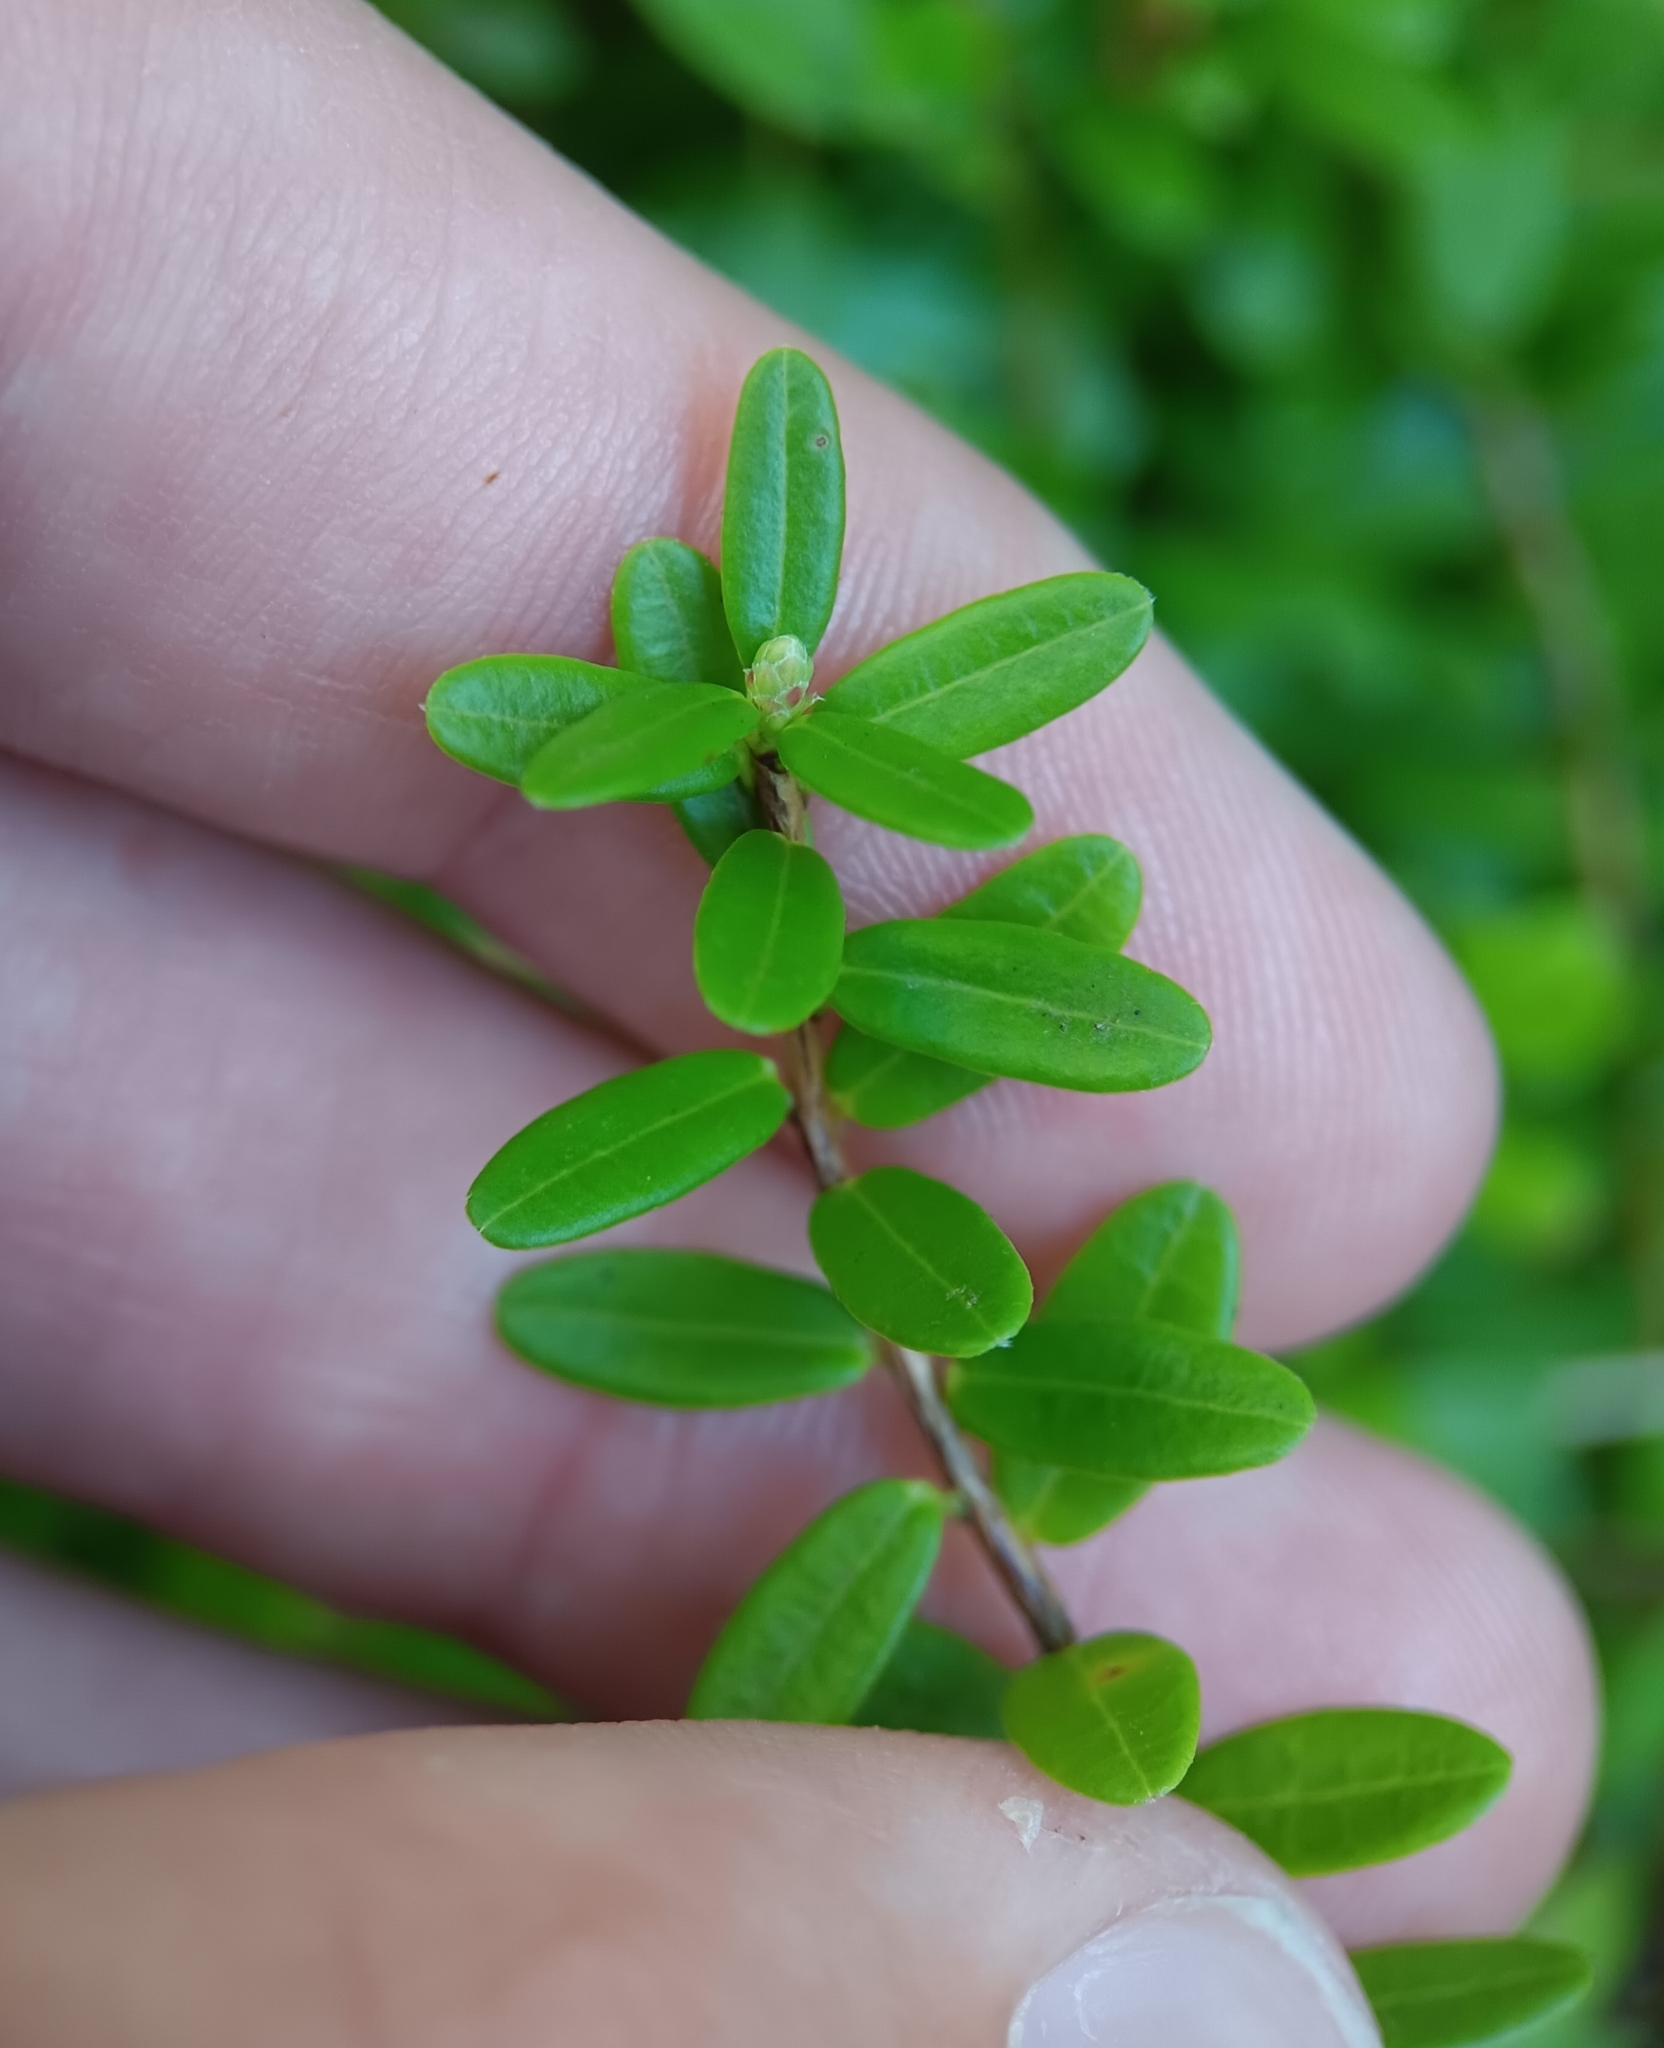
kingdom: Plantae
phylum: Tracheophyta
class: Magnoliopsida
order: Ericales
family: Ericaceae
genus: Vaccinium
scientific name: Vaccinium macrocarpon
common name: American cranberry
